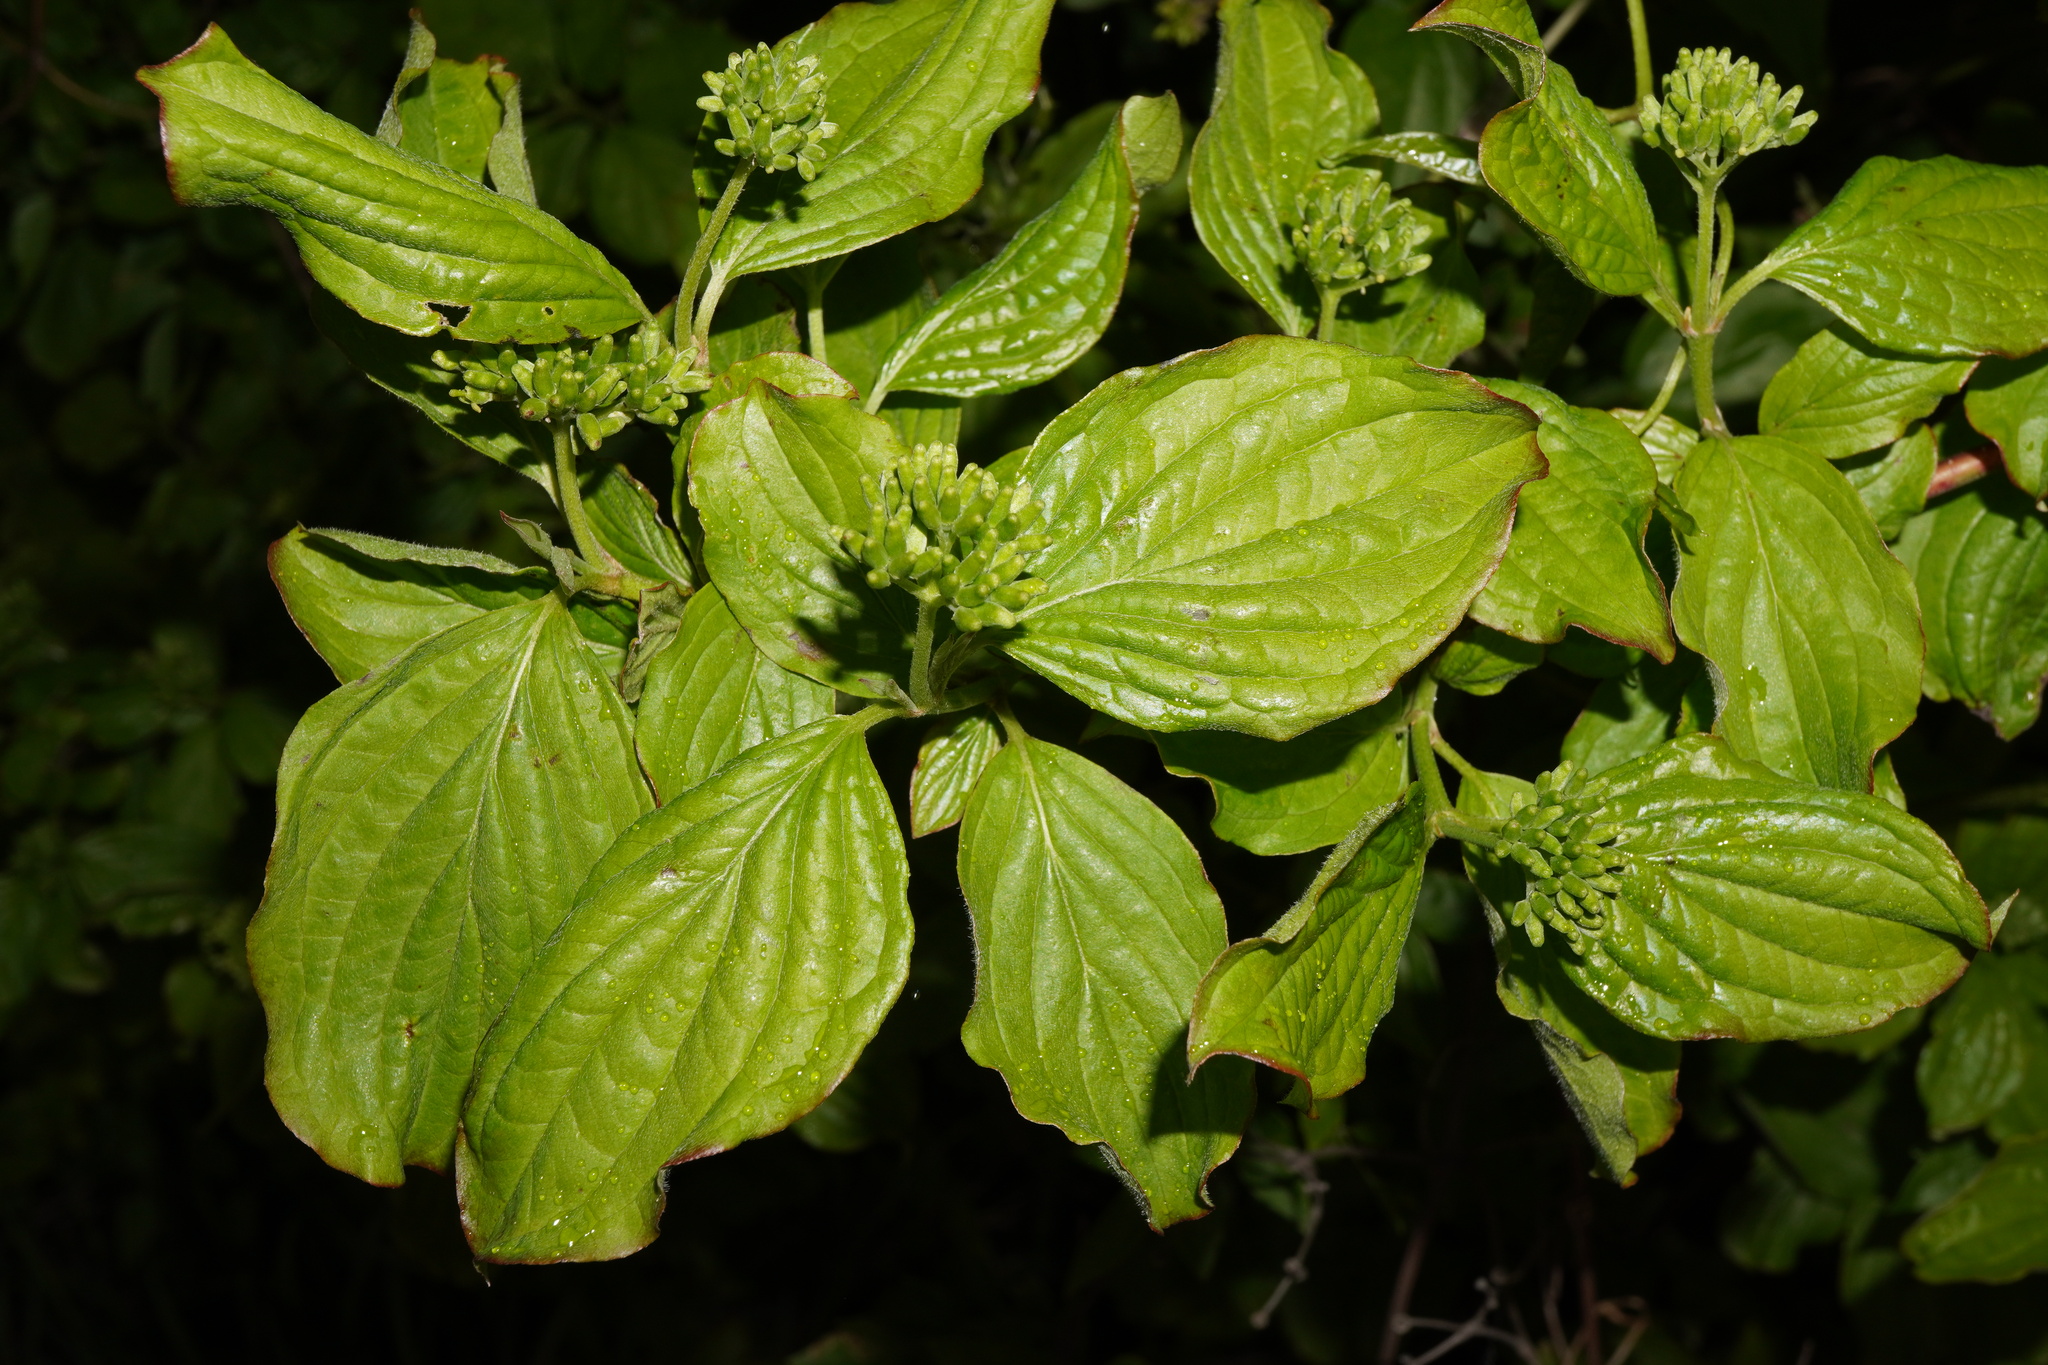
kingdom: Plantae
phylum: Tracheophyta
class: Magnoliopsida
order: Cornales
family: Cornaceae
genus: Cornus
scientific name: Cornus sanguinea
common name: Dogwood
